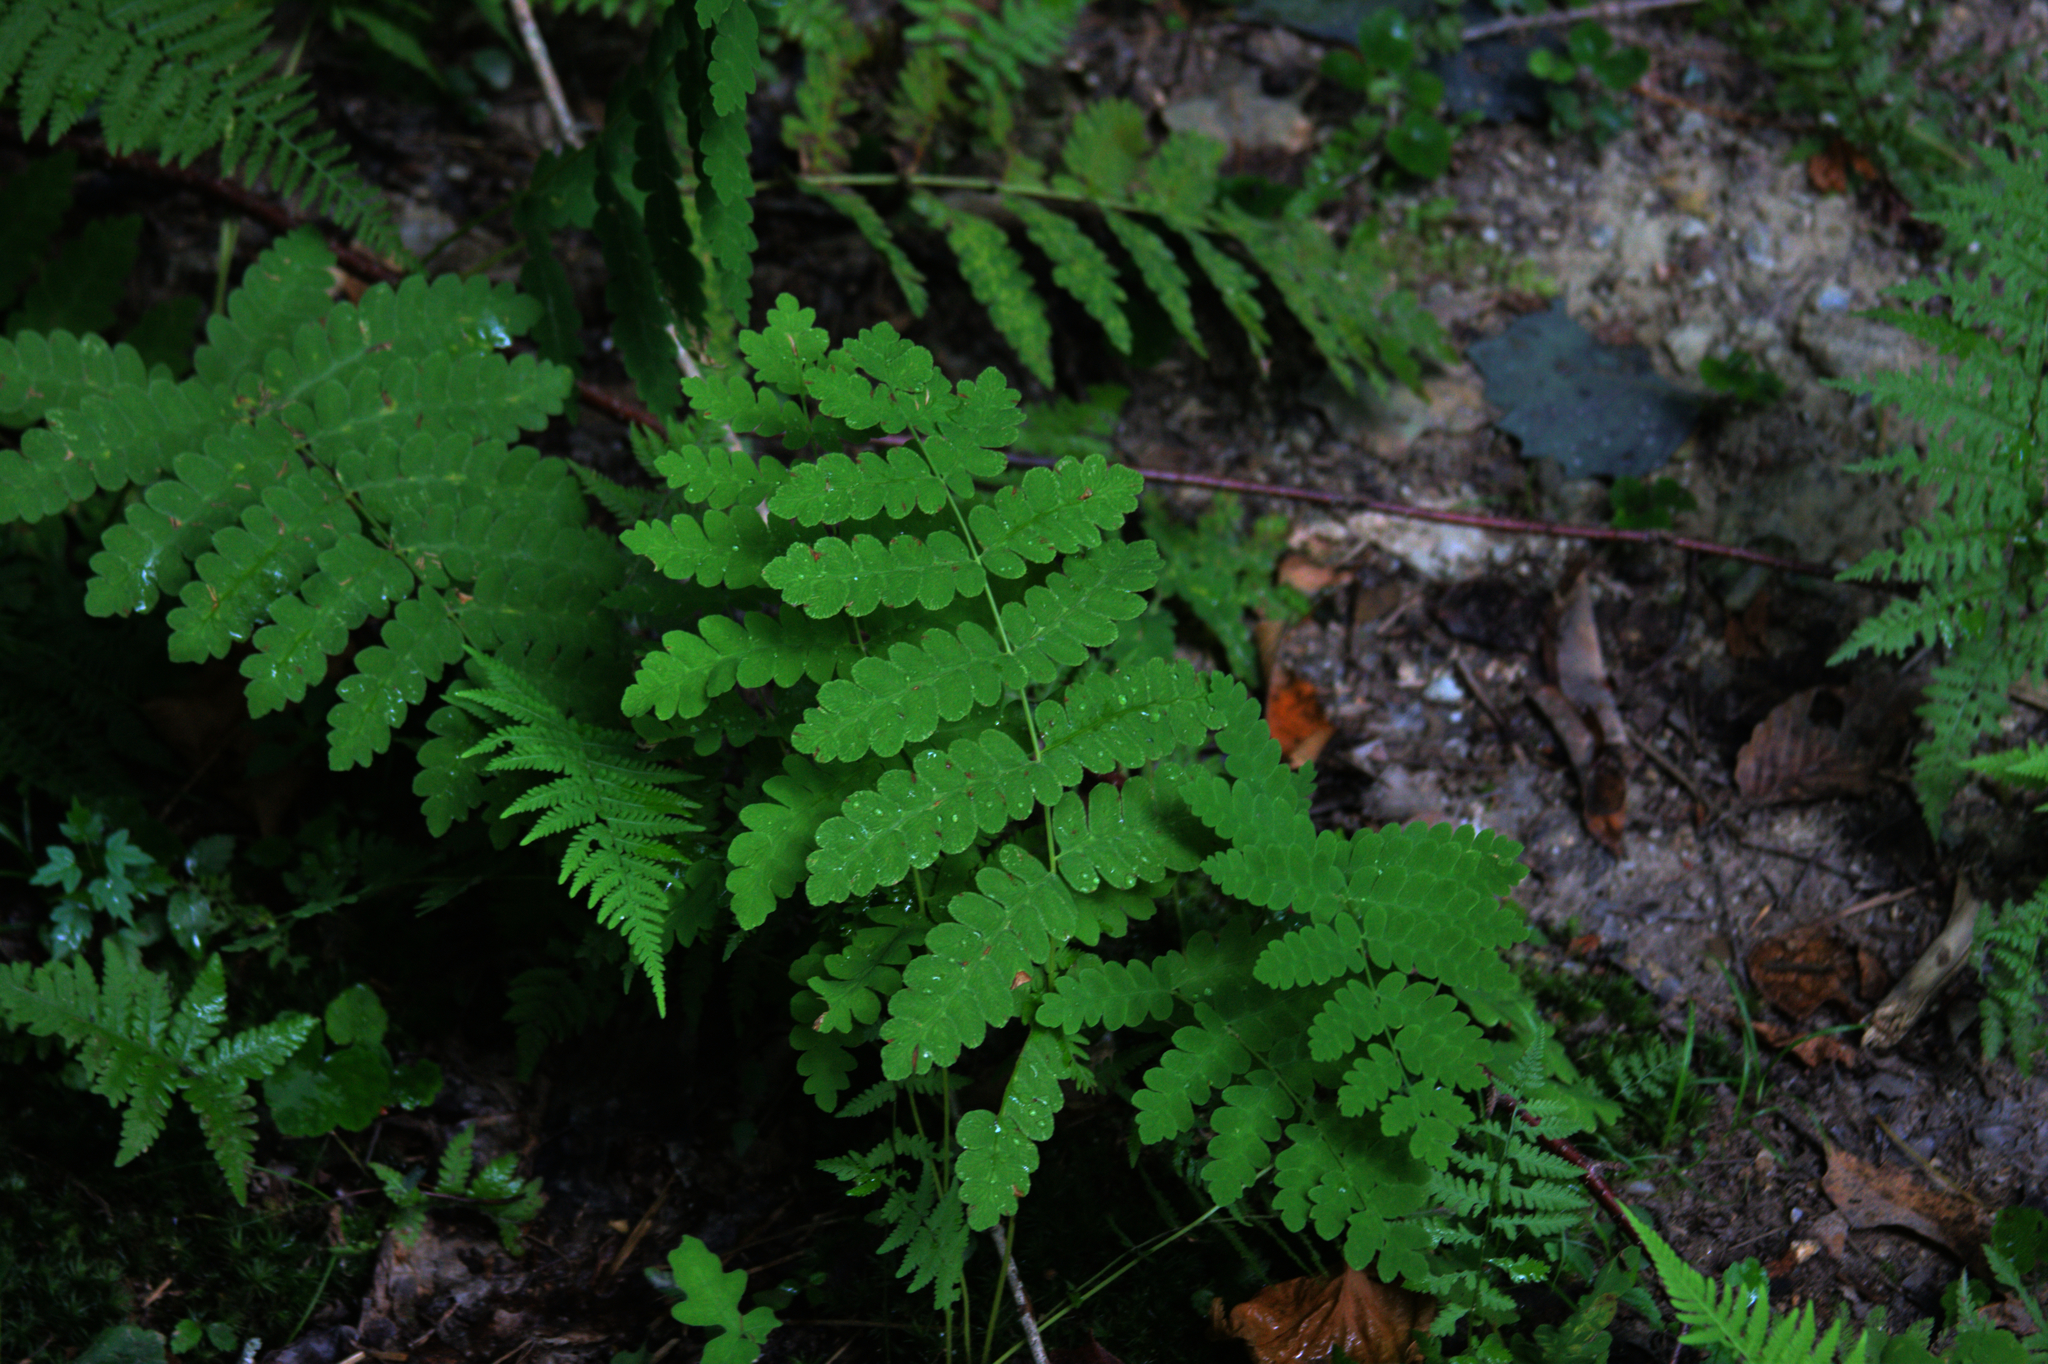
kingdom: Plantae
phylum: Tracheophyta
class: Polypodiopsida
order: Osmundales
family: Osmundaceae
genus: Claytosmunda
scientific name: Claytosmunda claytoniana
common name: Clayton's fern
